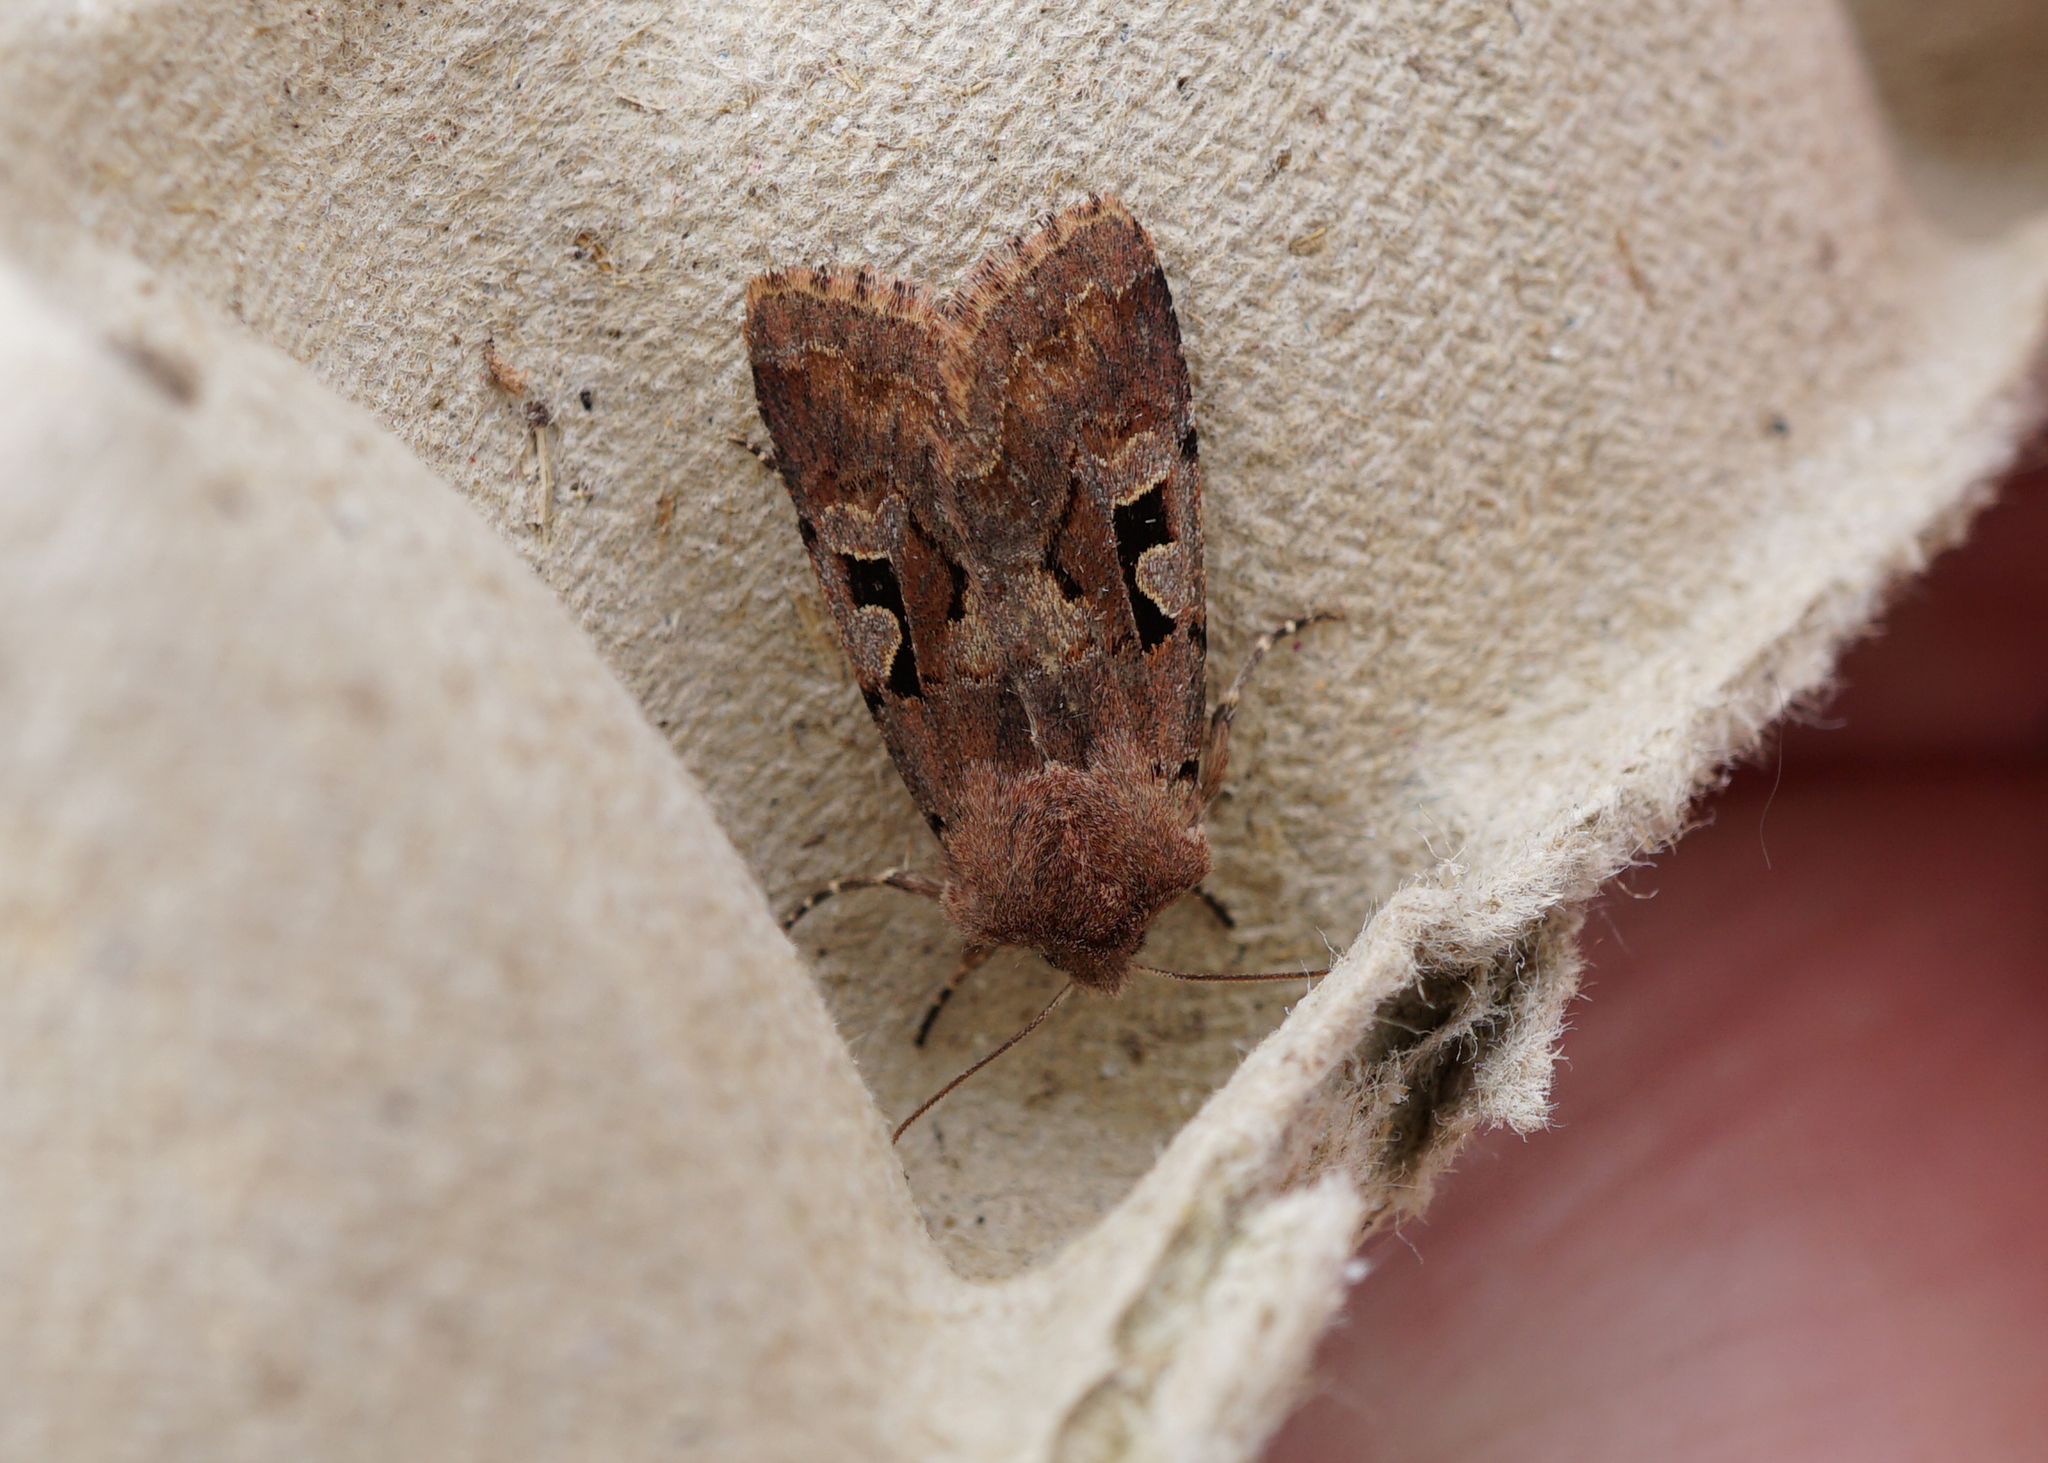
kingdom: Animalia
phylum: Arthropoda
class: Insecta
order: Lepidoptera
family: Noctuidae
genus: Orthosia
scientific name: Orthosia gothica
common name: Hebrew character
